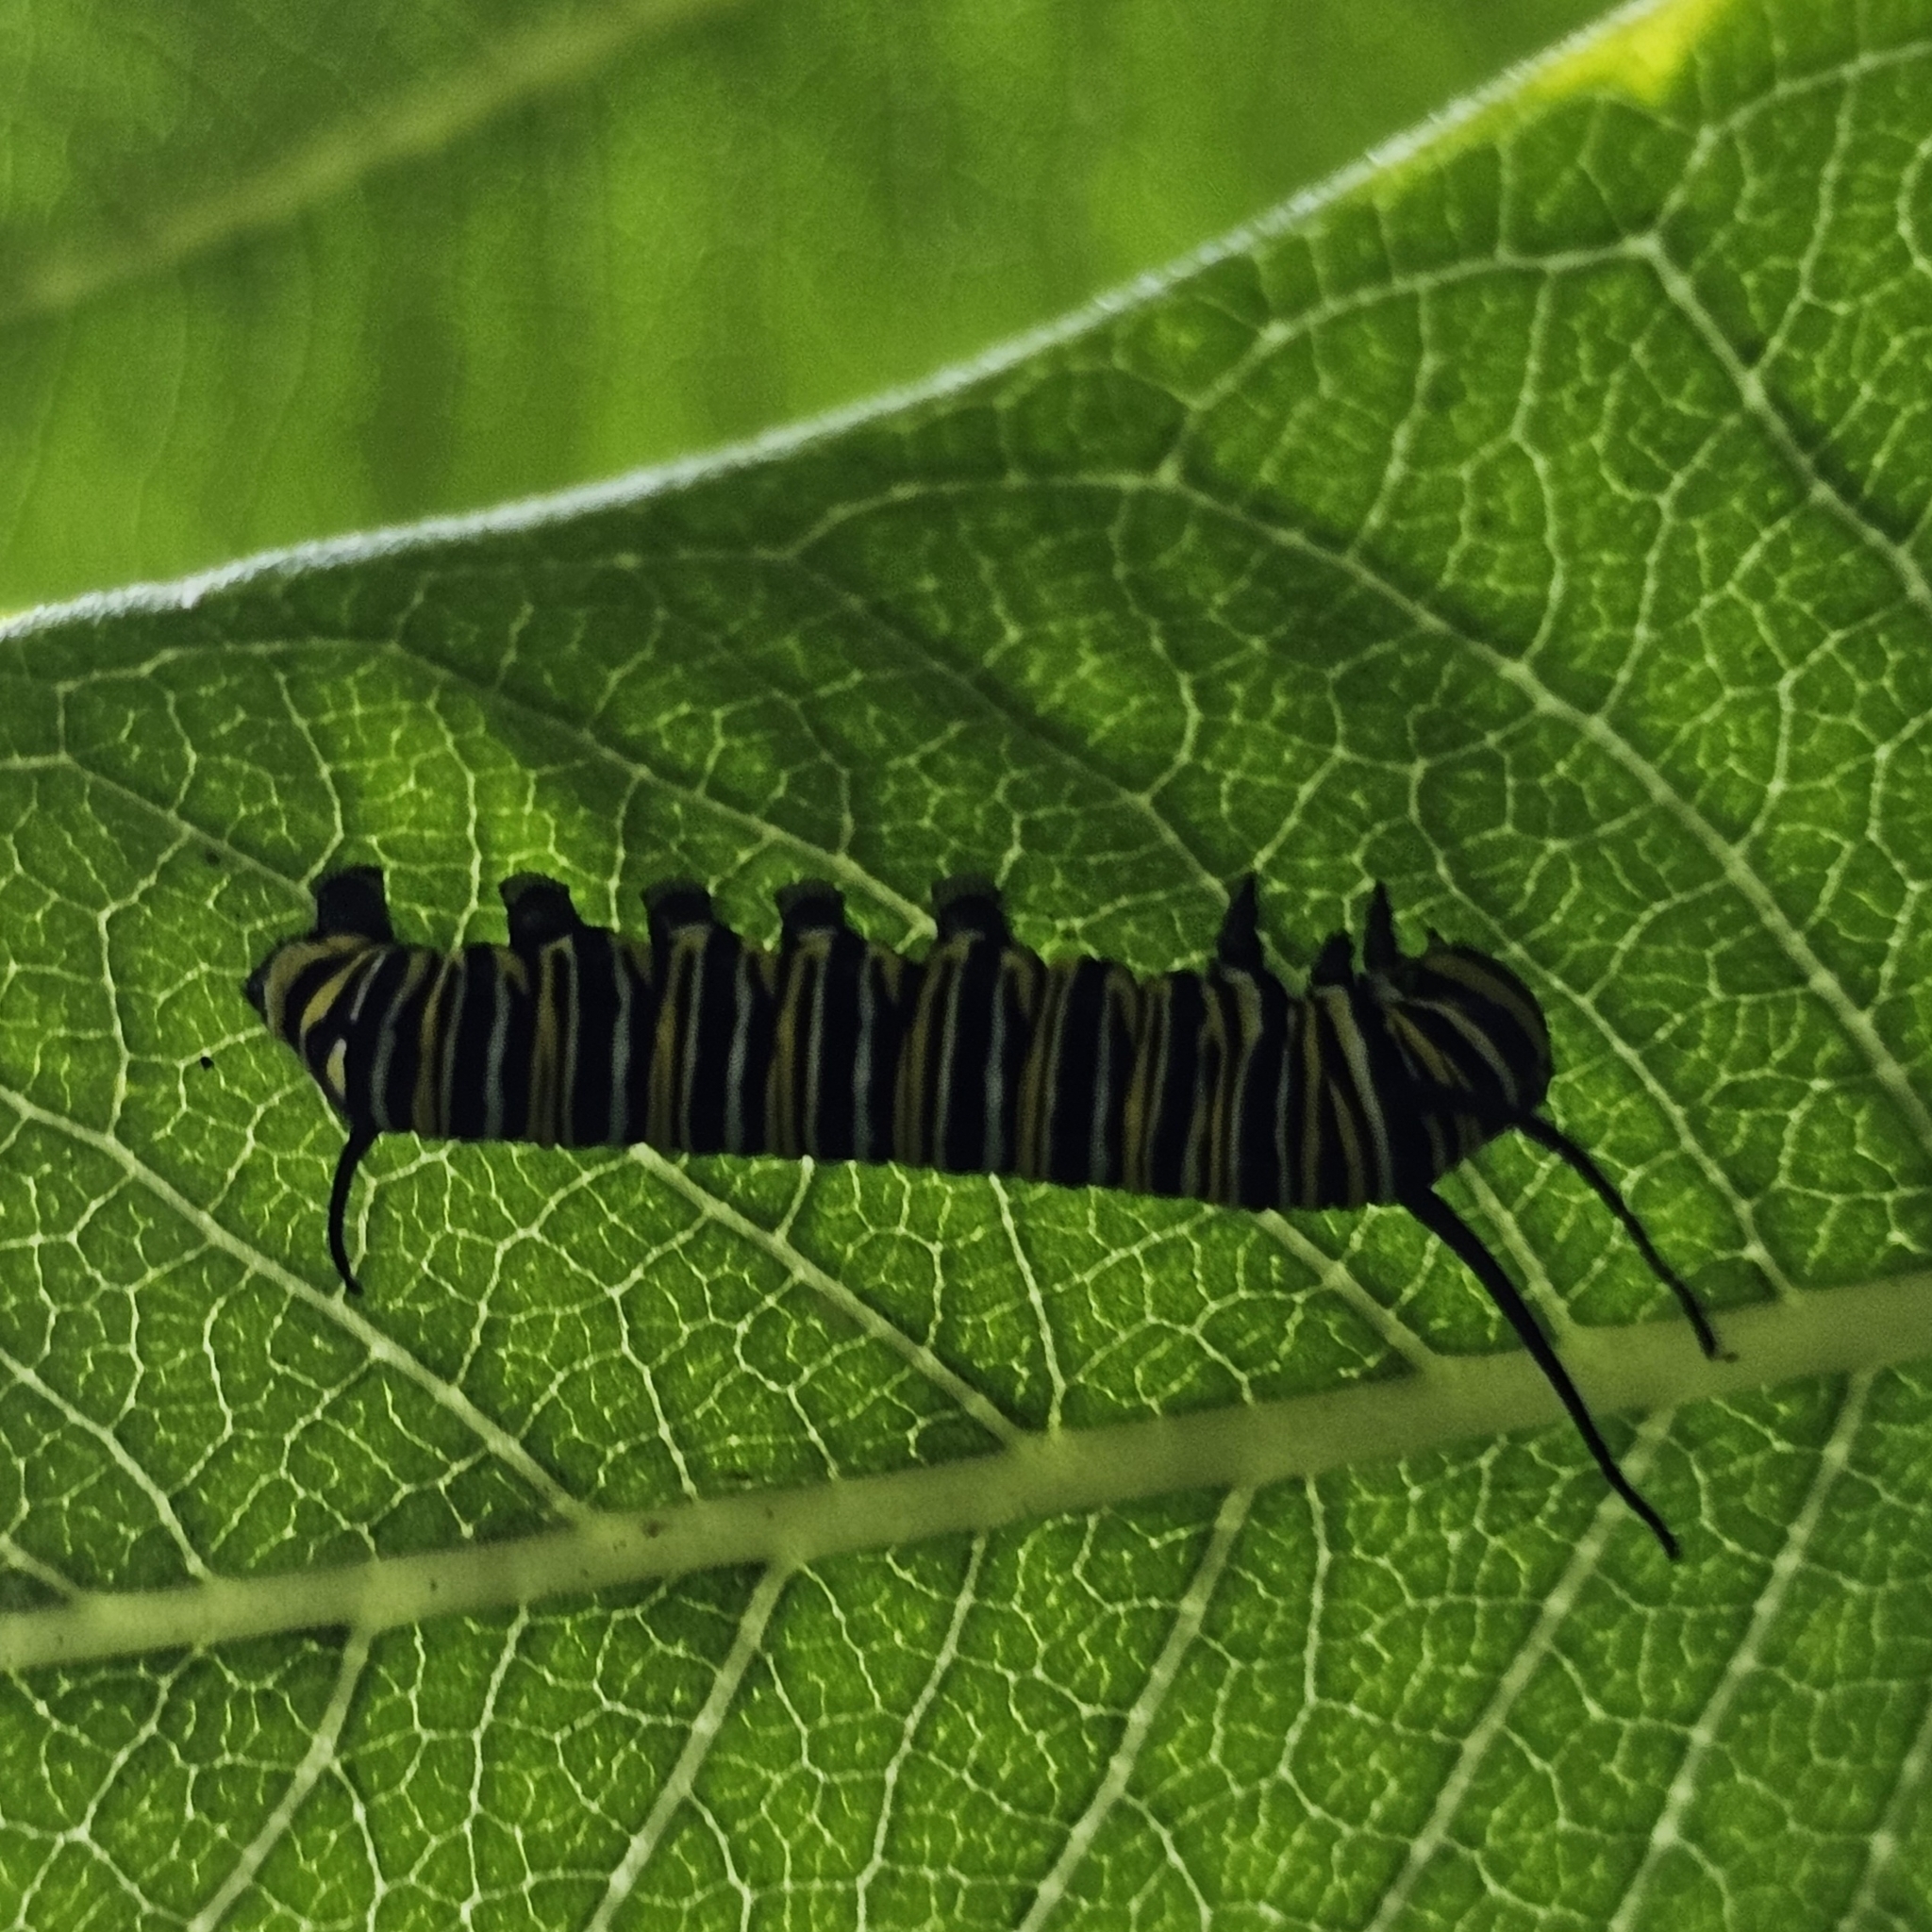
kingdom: Animalia
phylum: Arthropoda
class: Insecta
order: Lepidoptera
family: Nymphalidae
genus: Danaus
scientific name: Danaus plexippus
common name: Monarch
